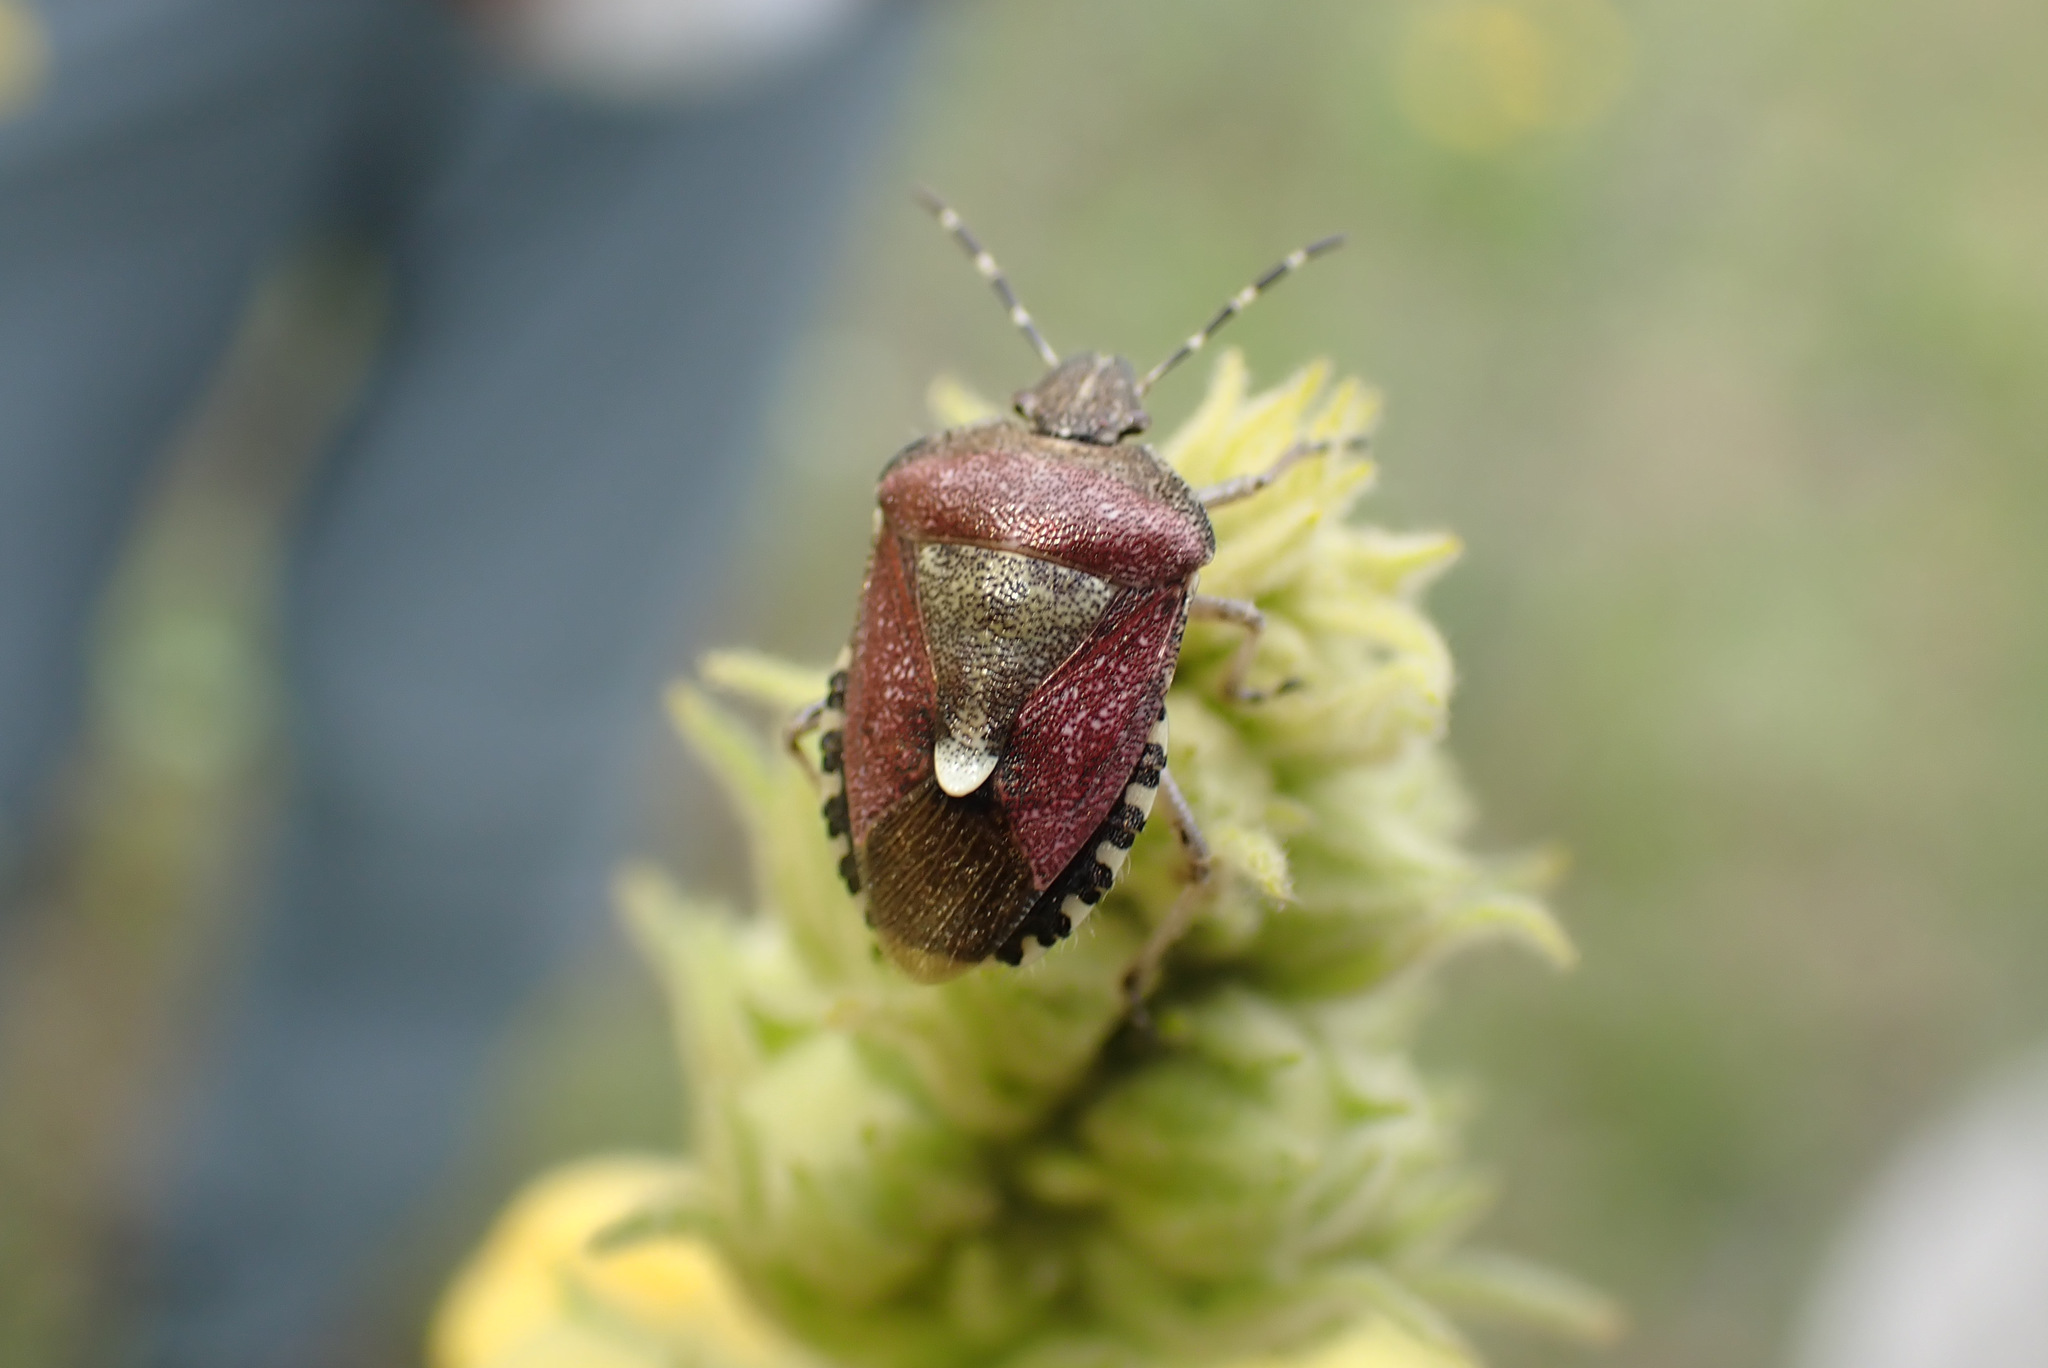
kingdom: Animalia
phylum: Arthropoda
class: Insecta
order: Hemiptera
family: Pentatomidae
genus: Dolycoris
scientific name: Dolycoris baccarum
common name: Sloe bug
